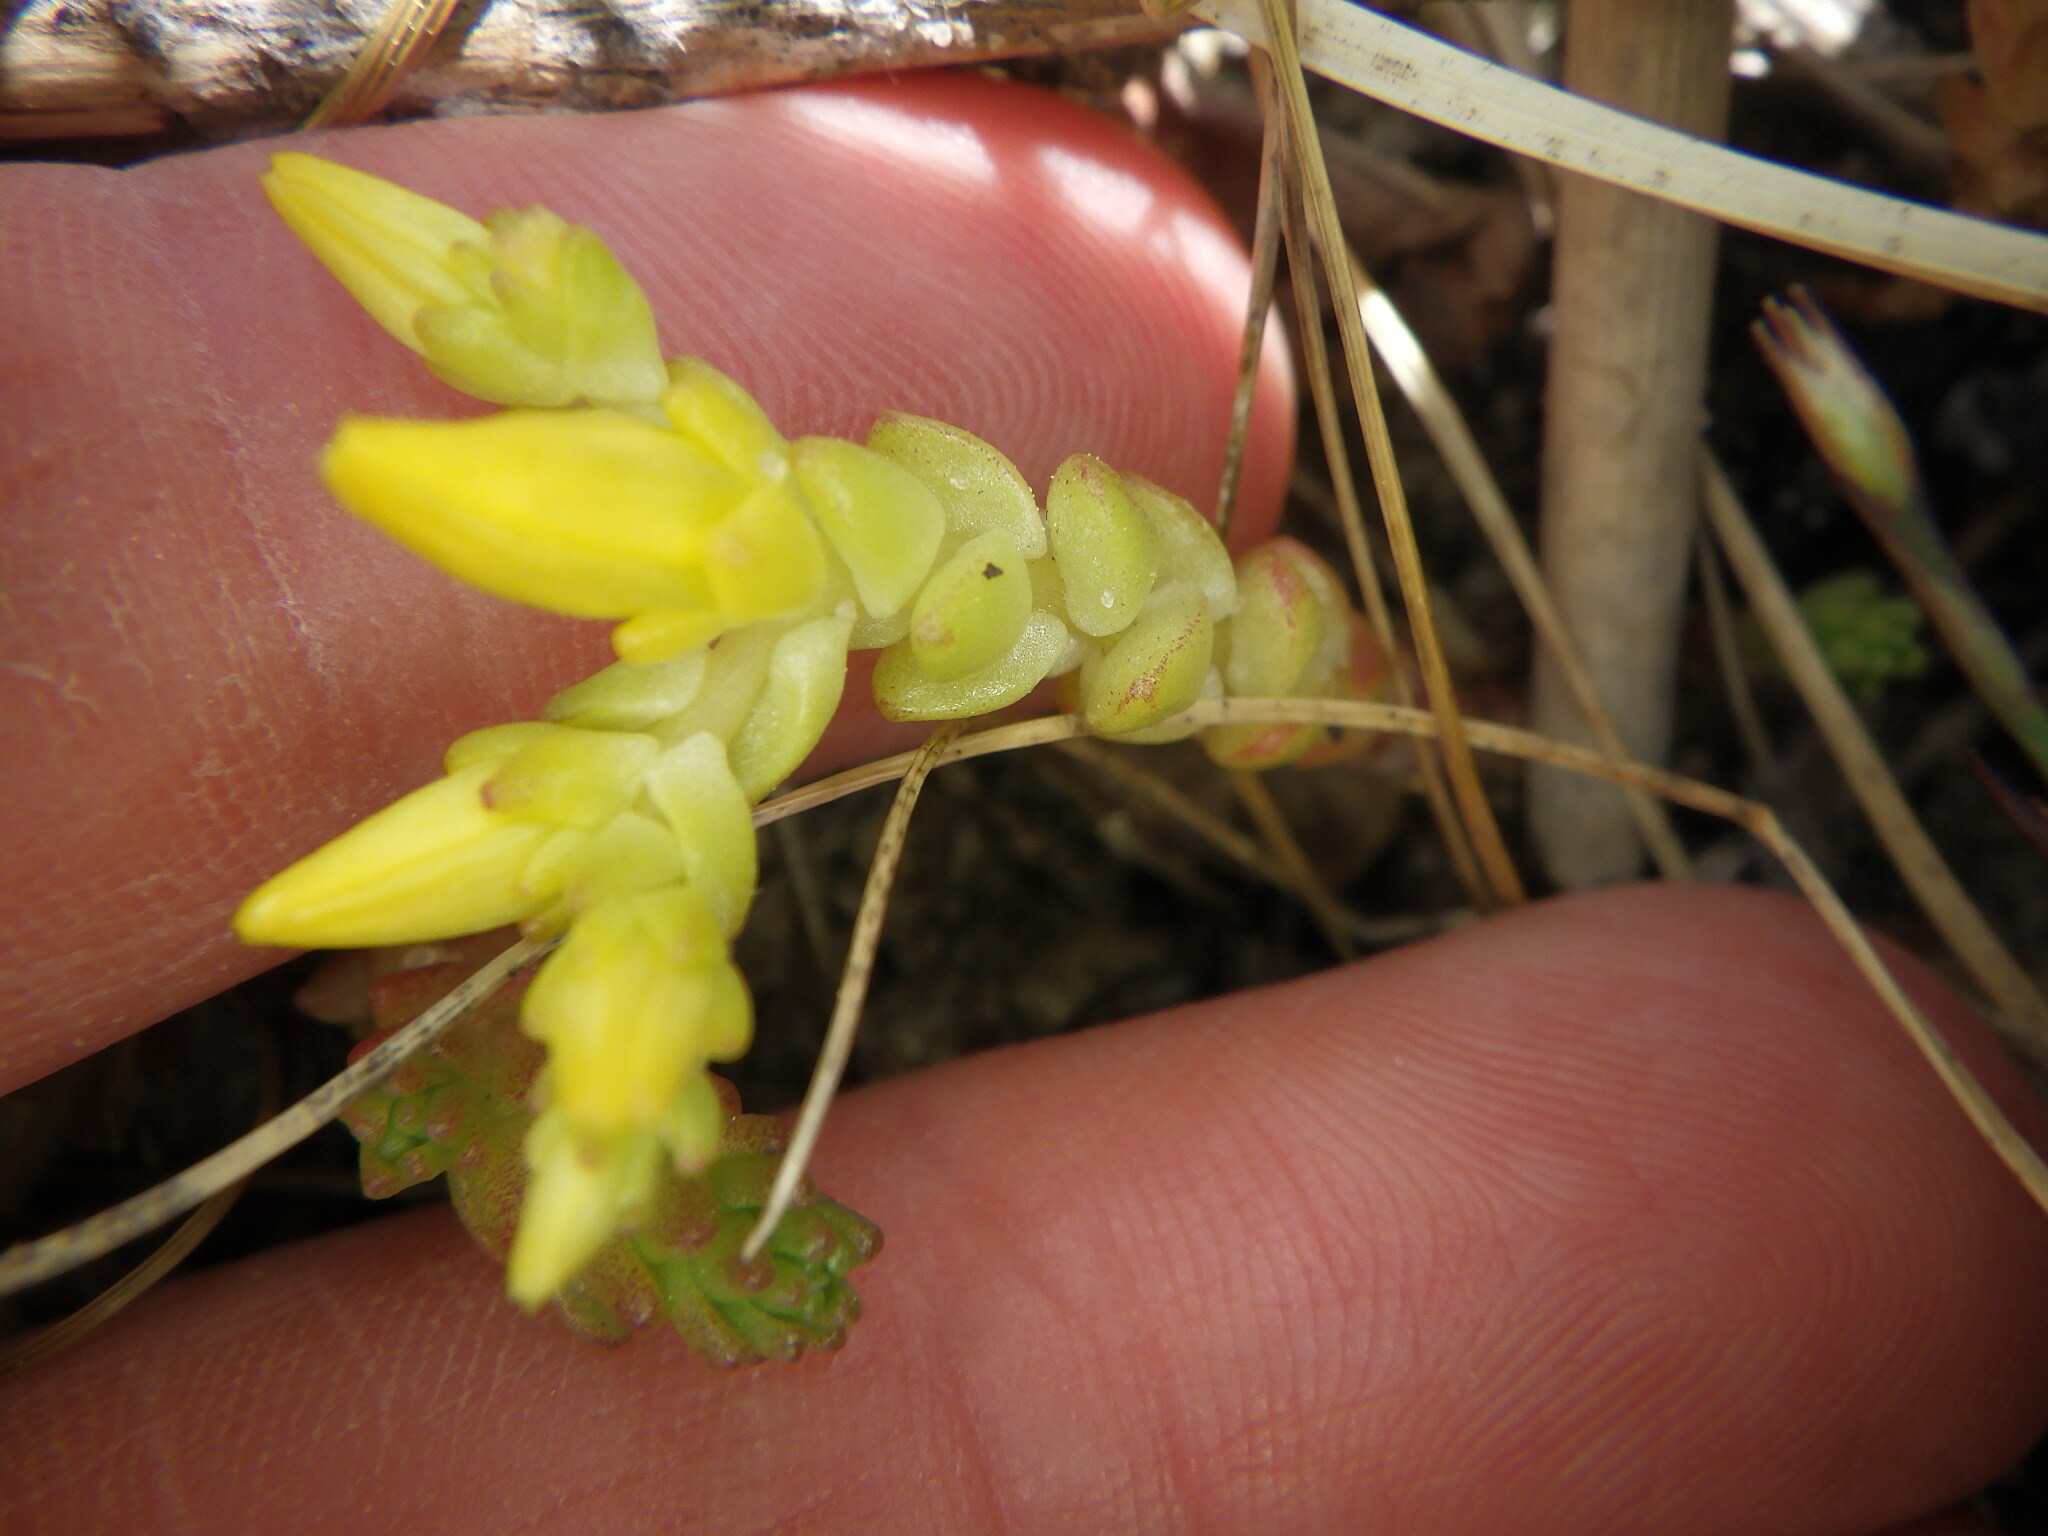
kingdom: Plantae
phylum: Tracheophyta
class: Magnoliopsida
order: Saxifragales
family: Crassulaceae
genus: Sedum
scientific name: Sedum acre
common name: Biting stonecrop
